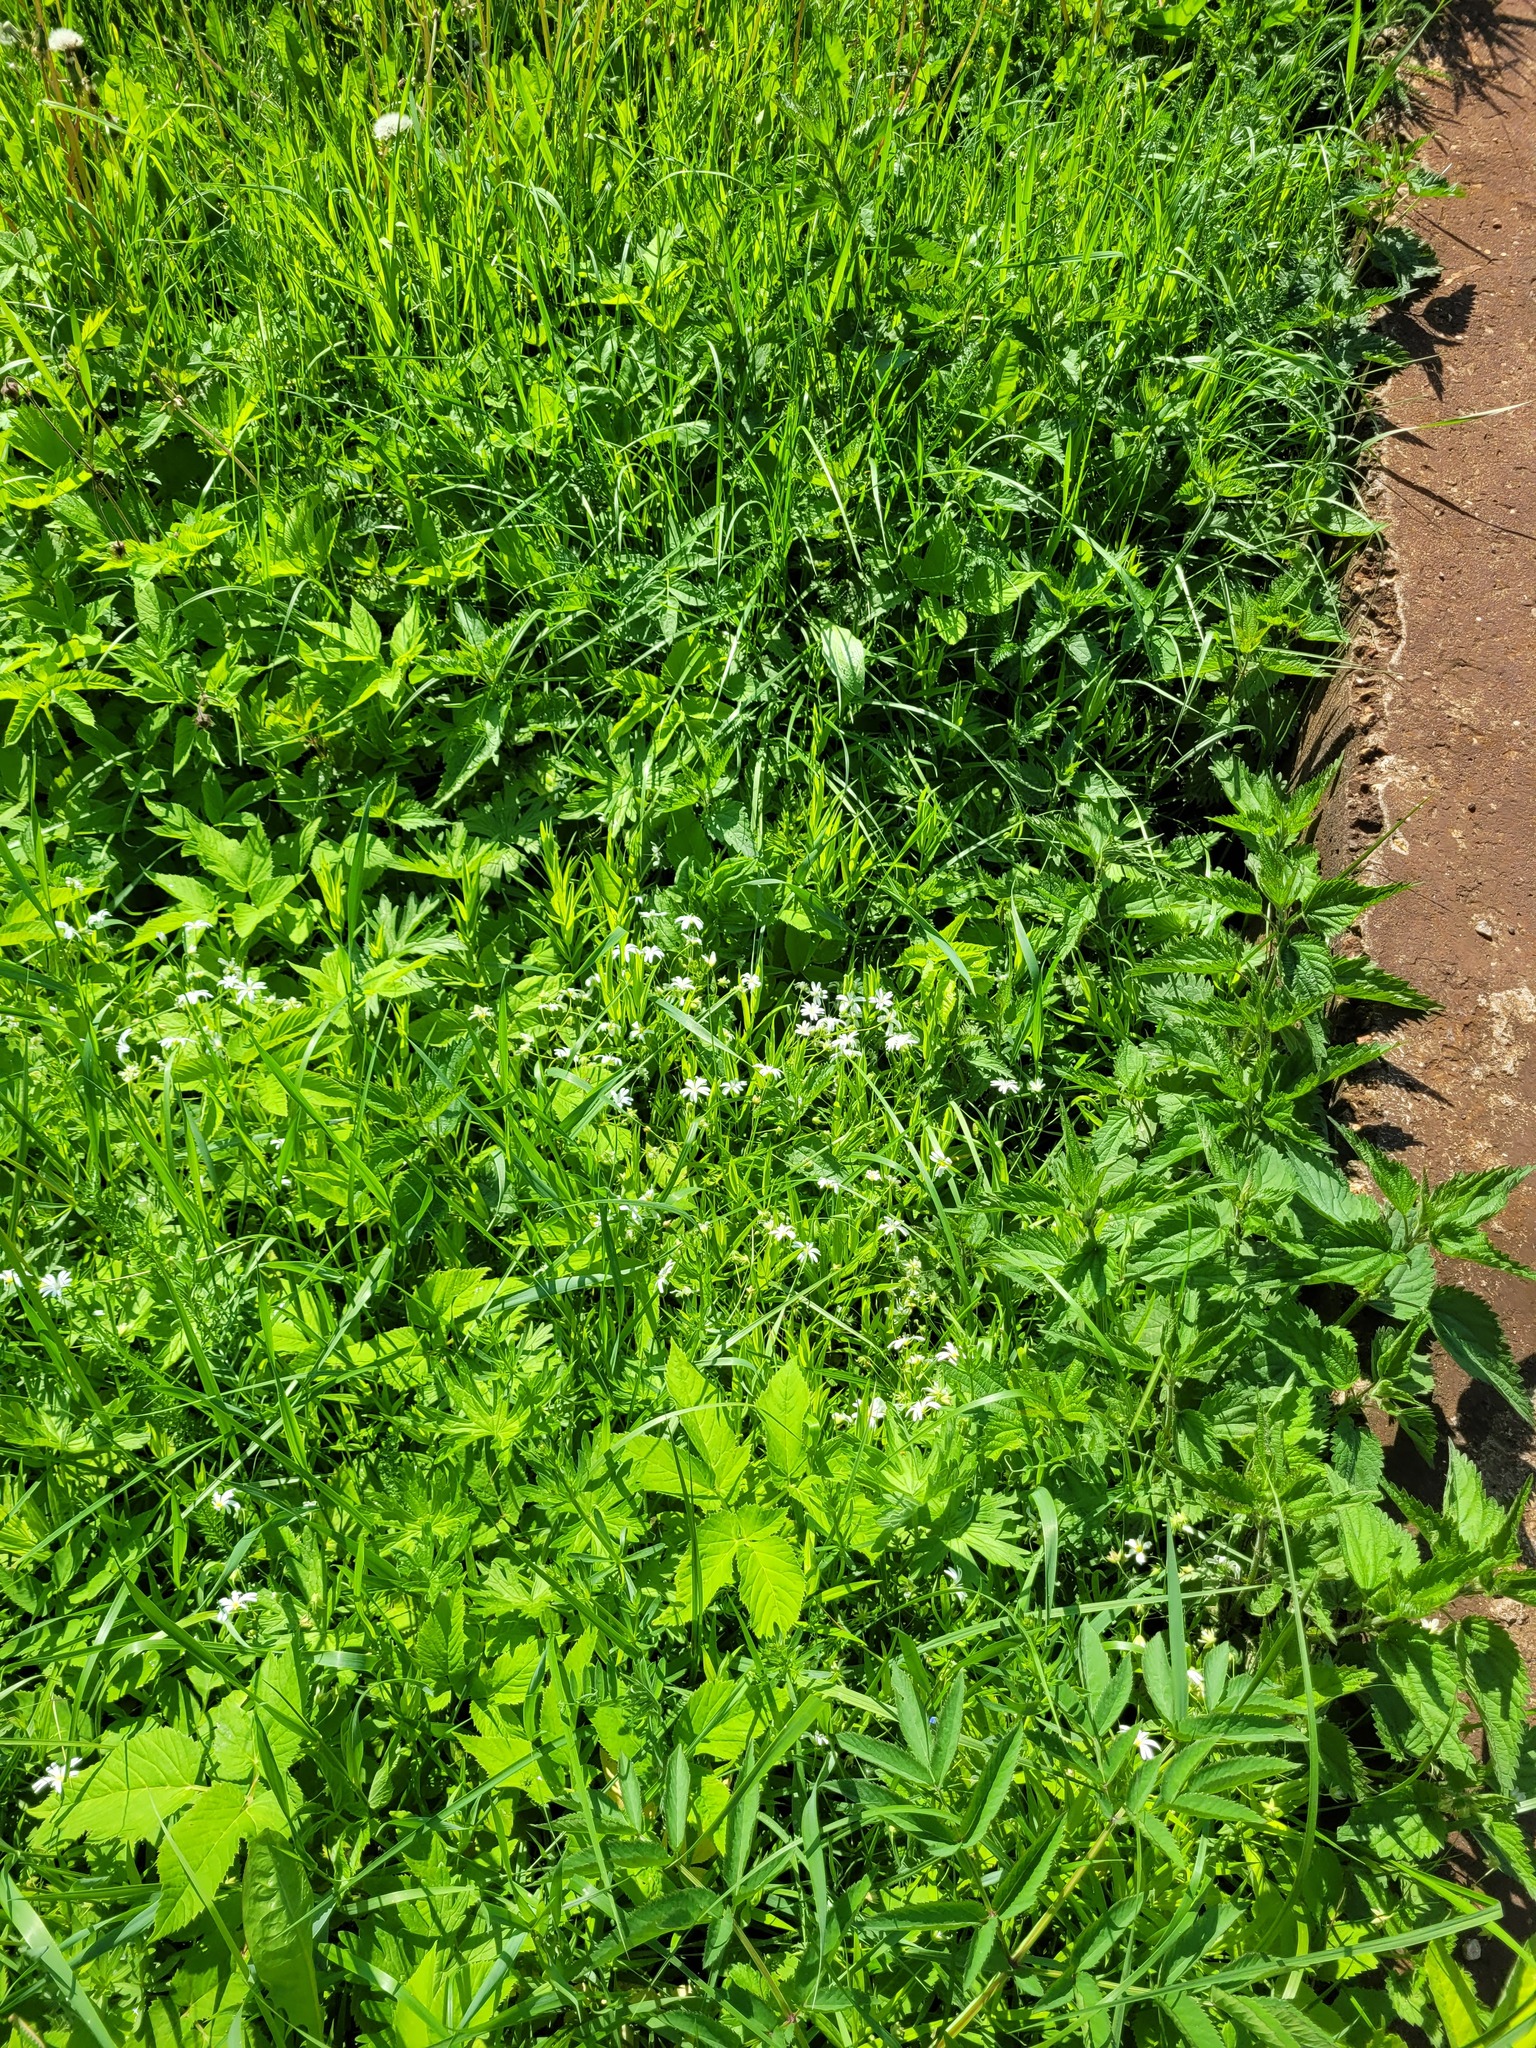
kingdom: Plantae
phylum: Tracheophyta
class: Magnoliopsida
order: Caryophyllales
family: Caryophyllaceae
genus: Rabelera
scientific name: Rabelera holostea
